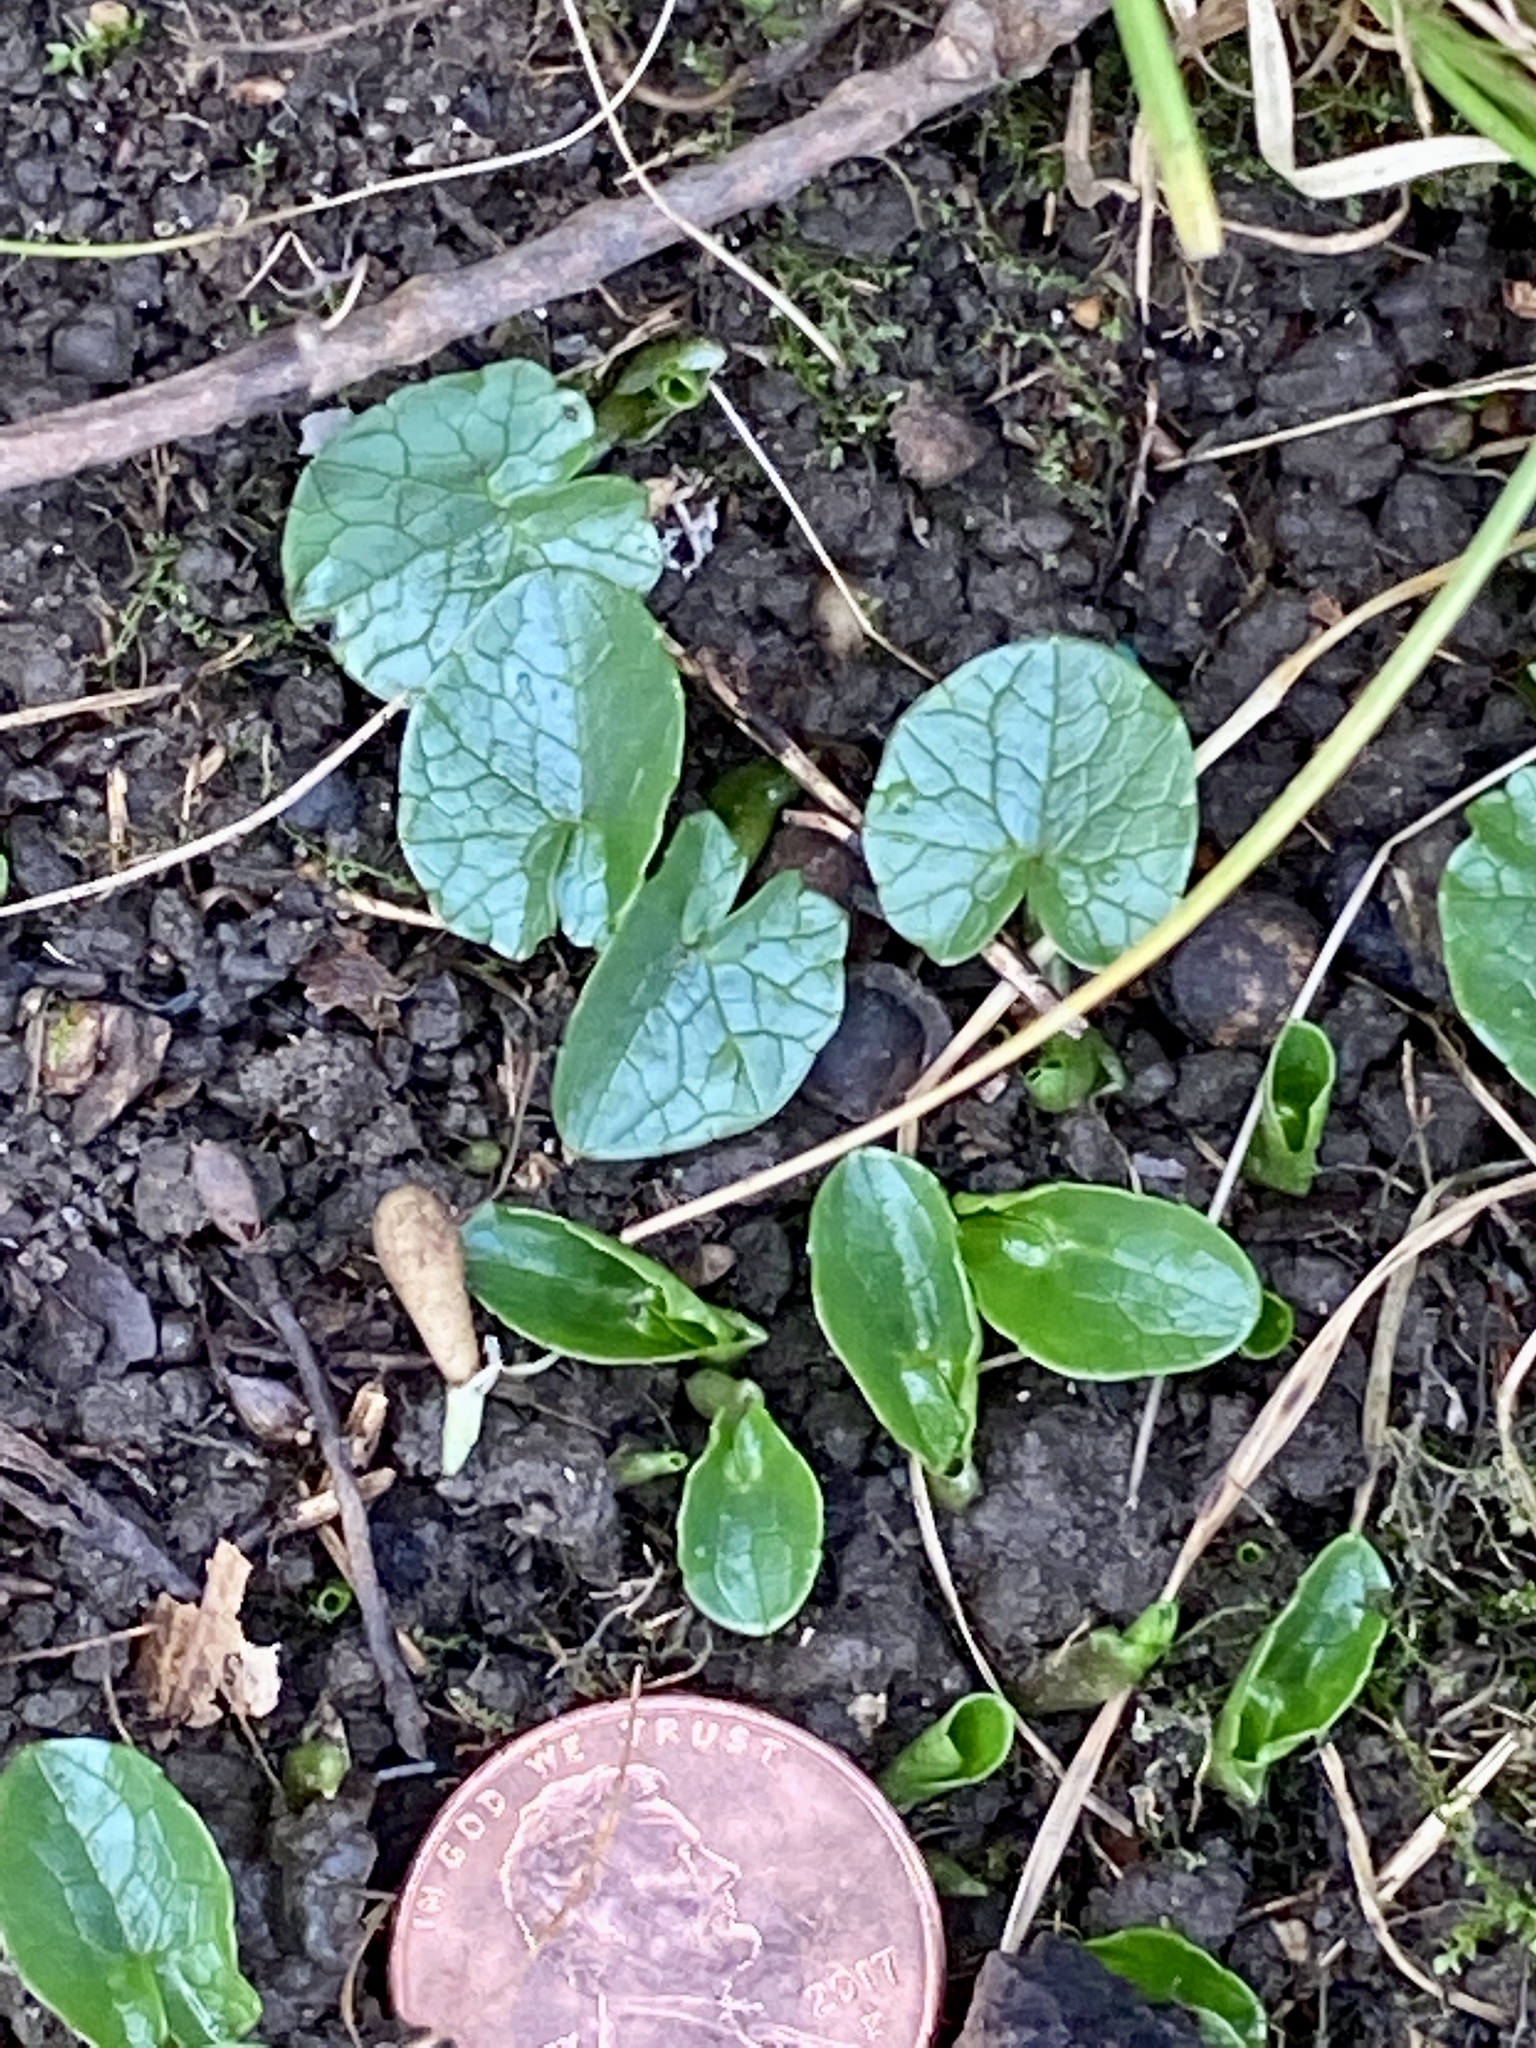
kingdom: Plantae
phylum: Tracheophyta
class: Magnoliopsida
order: Ranunculales
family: Ranunculaceae
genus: Ficaria
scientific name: Ficaria verna
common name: Lesser celandine
